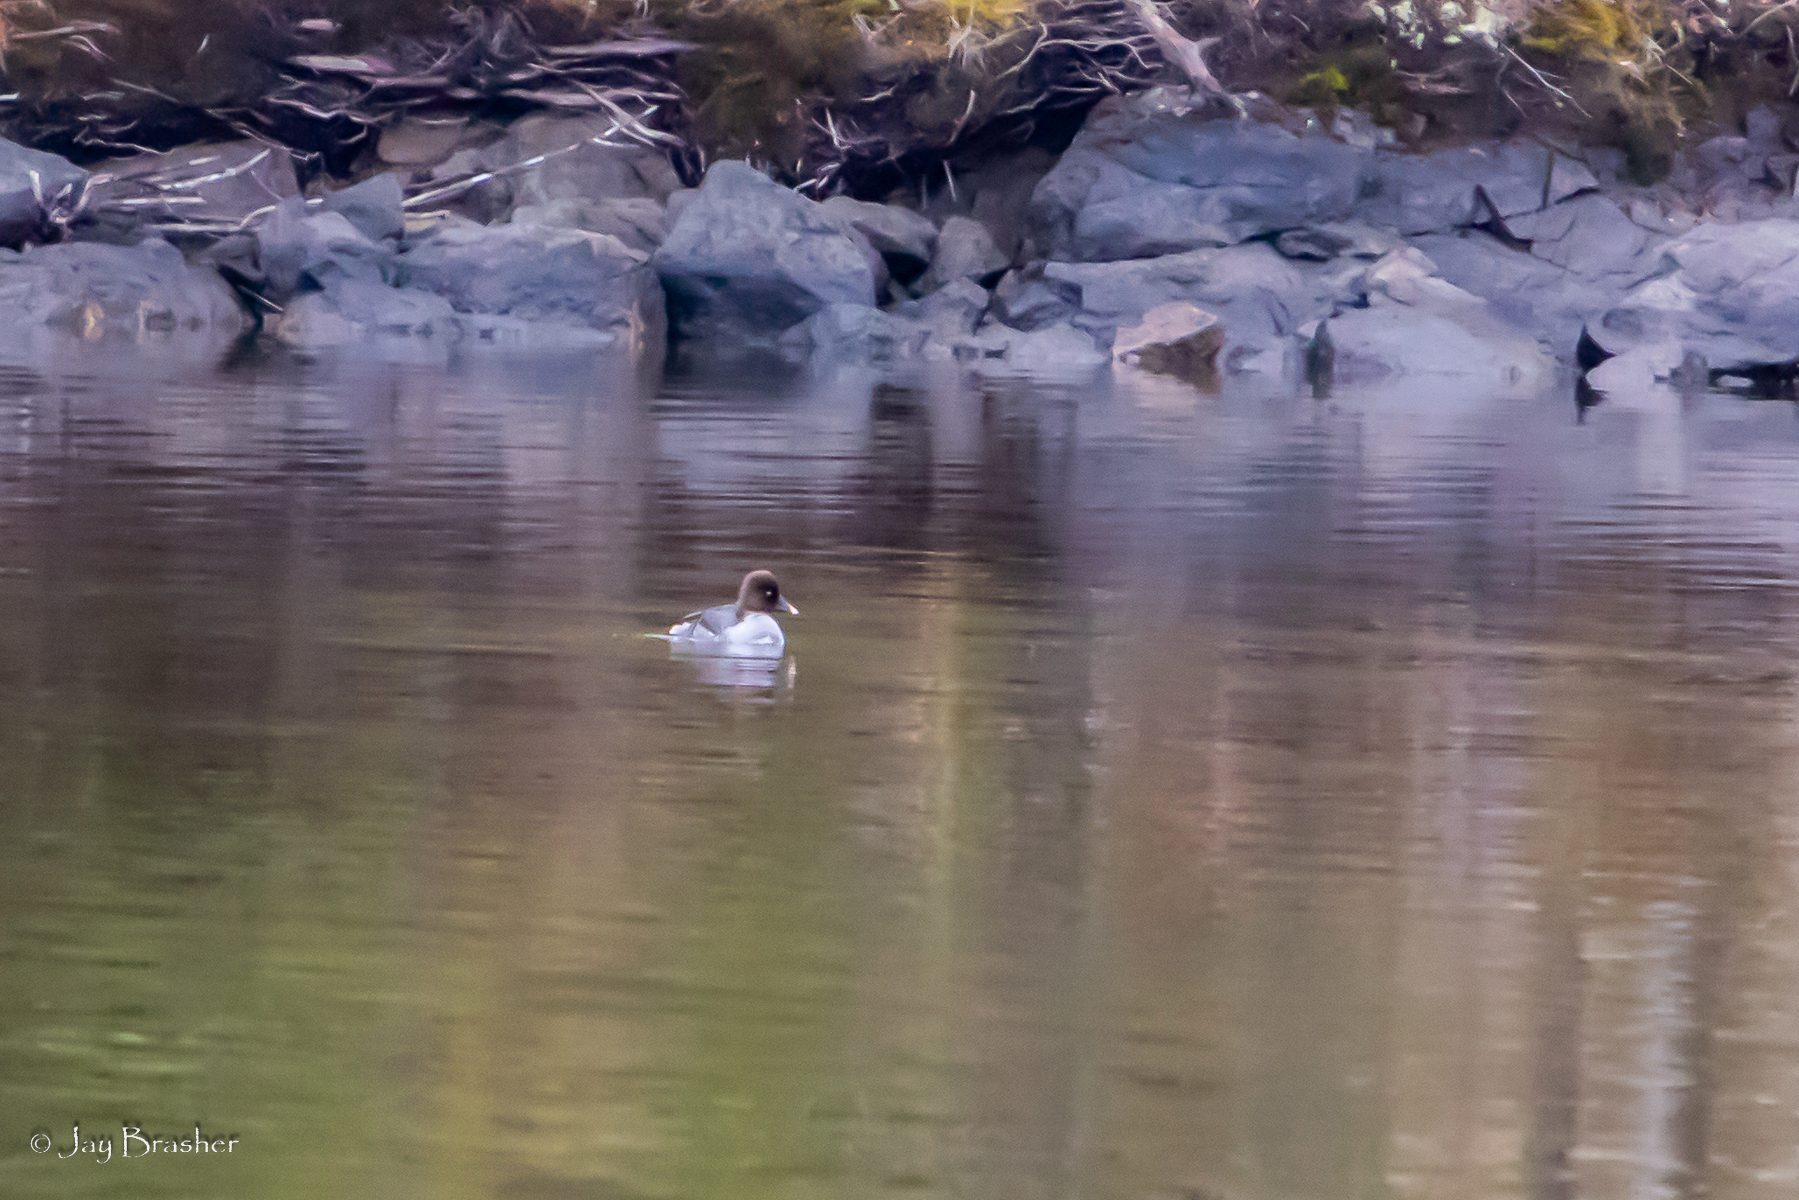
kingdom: Animalia
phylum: Chordata
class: Aves
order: Anseriformes
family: Anatidae
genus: Bucephala
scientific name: Bucephala clangula
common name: Common goldeneye
